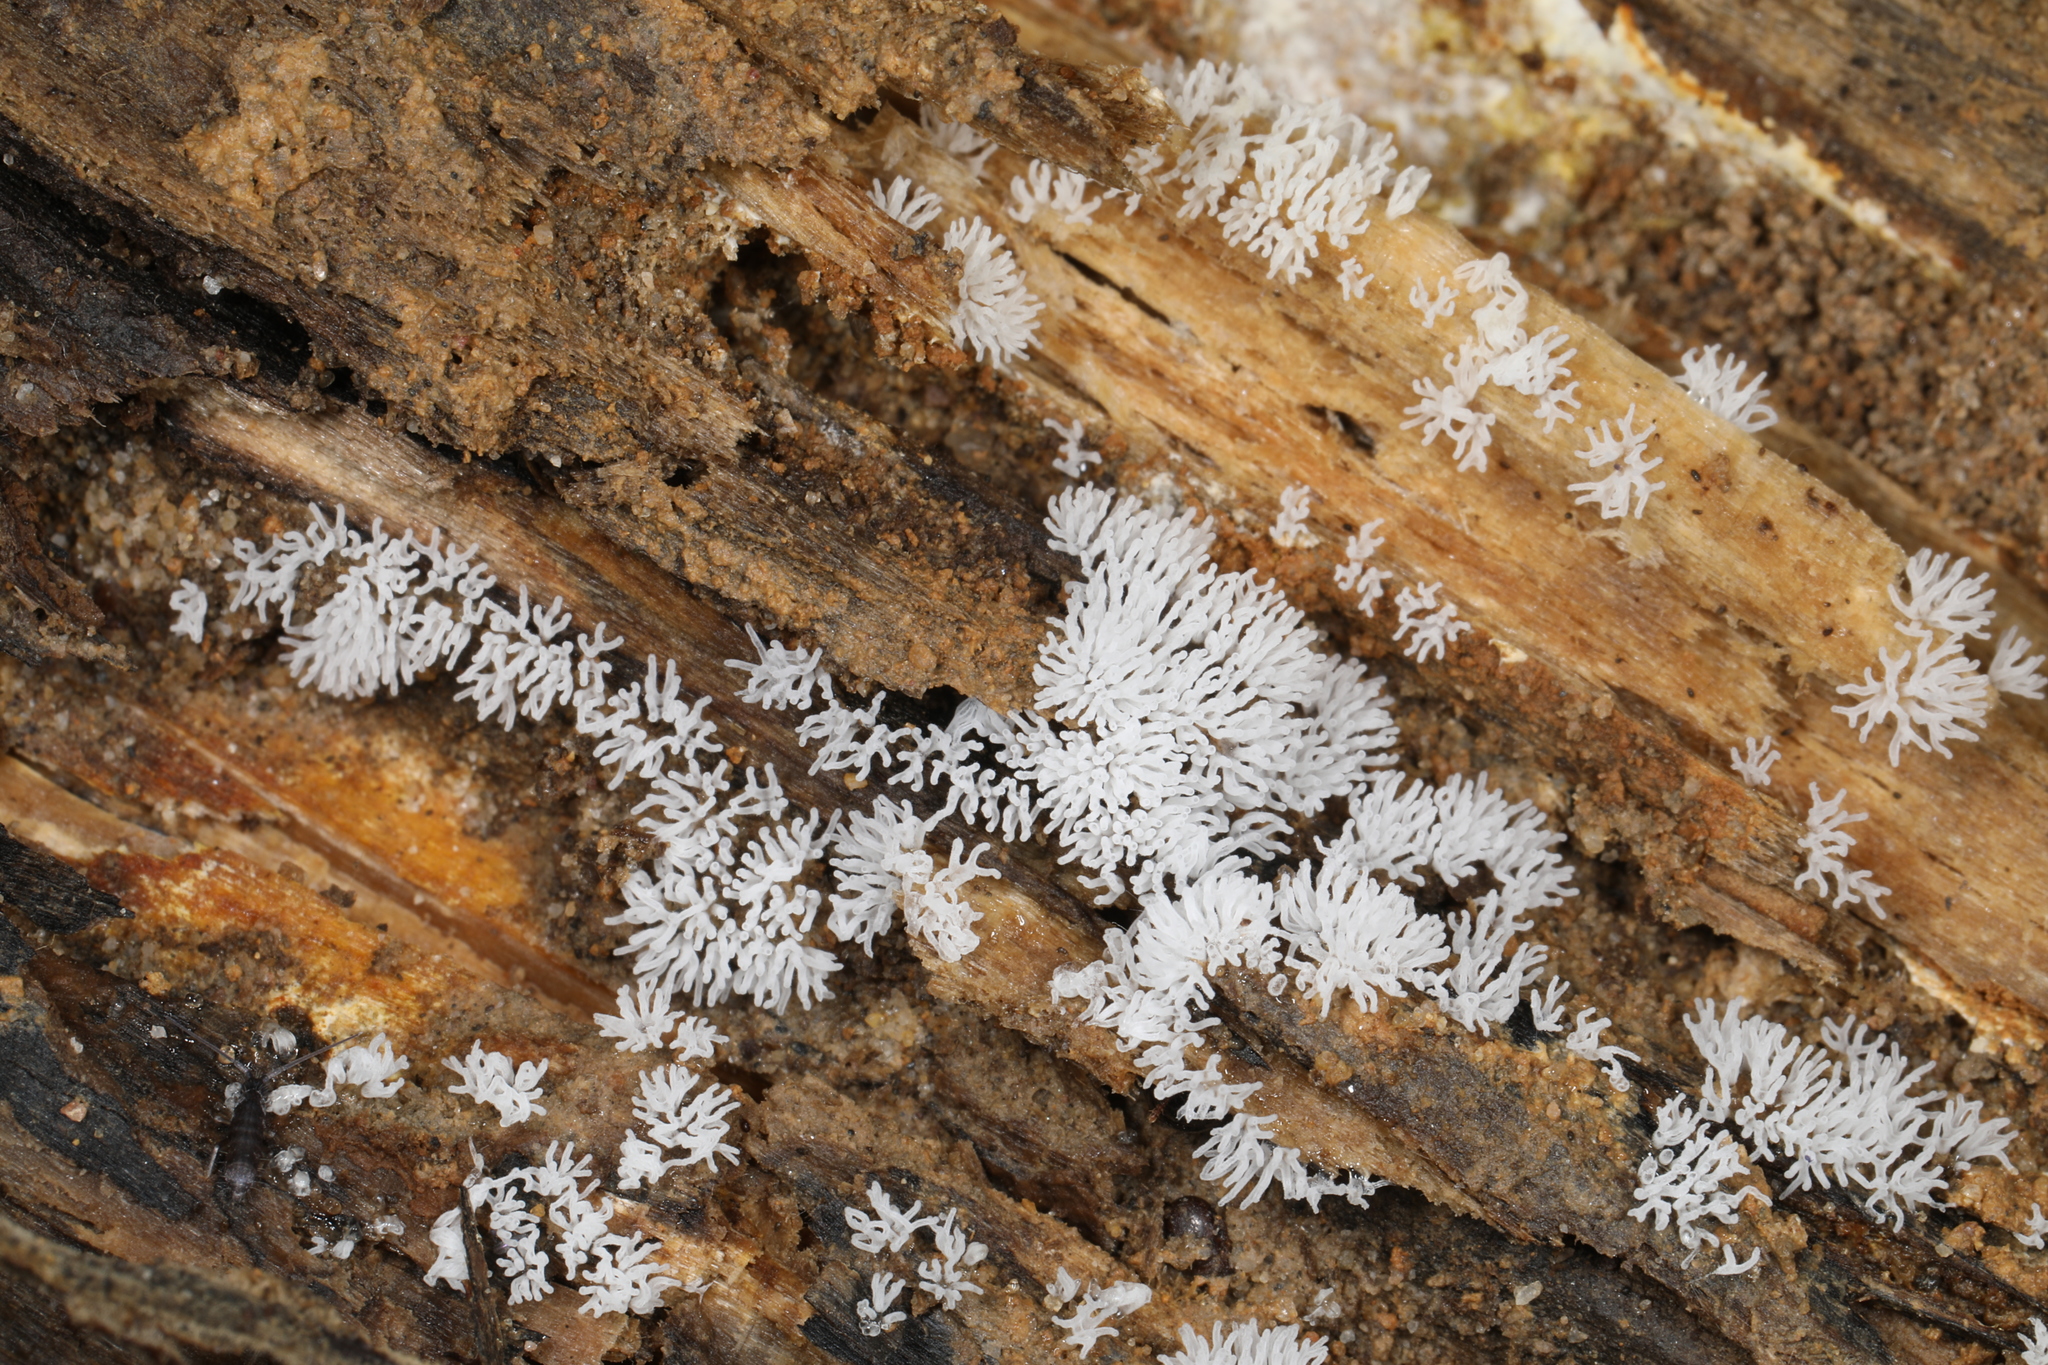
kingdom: Protozoa
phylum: Mycetozoa
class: Protosteliomycetes
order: Ceratiomyxales
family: Ceratiomyxaceae
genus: Ceratiomyxa
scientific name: Ceratiomyxa fruticulosa
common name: Honeycomb coral slime mold
